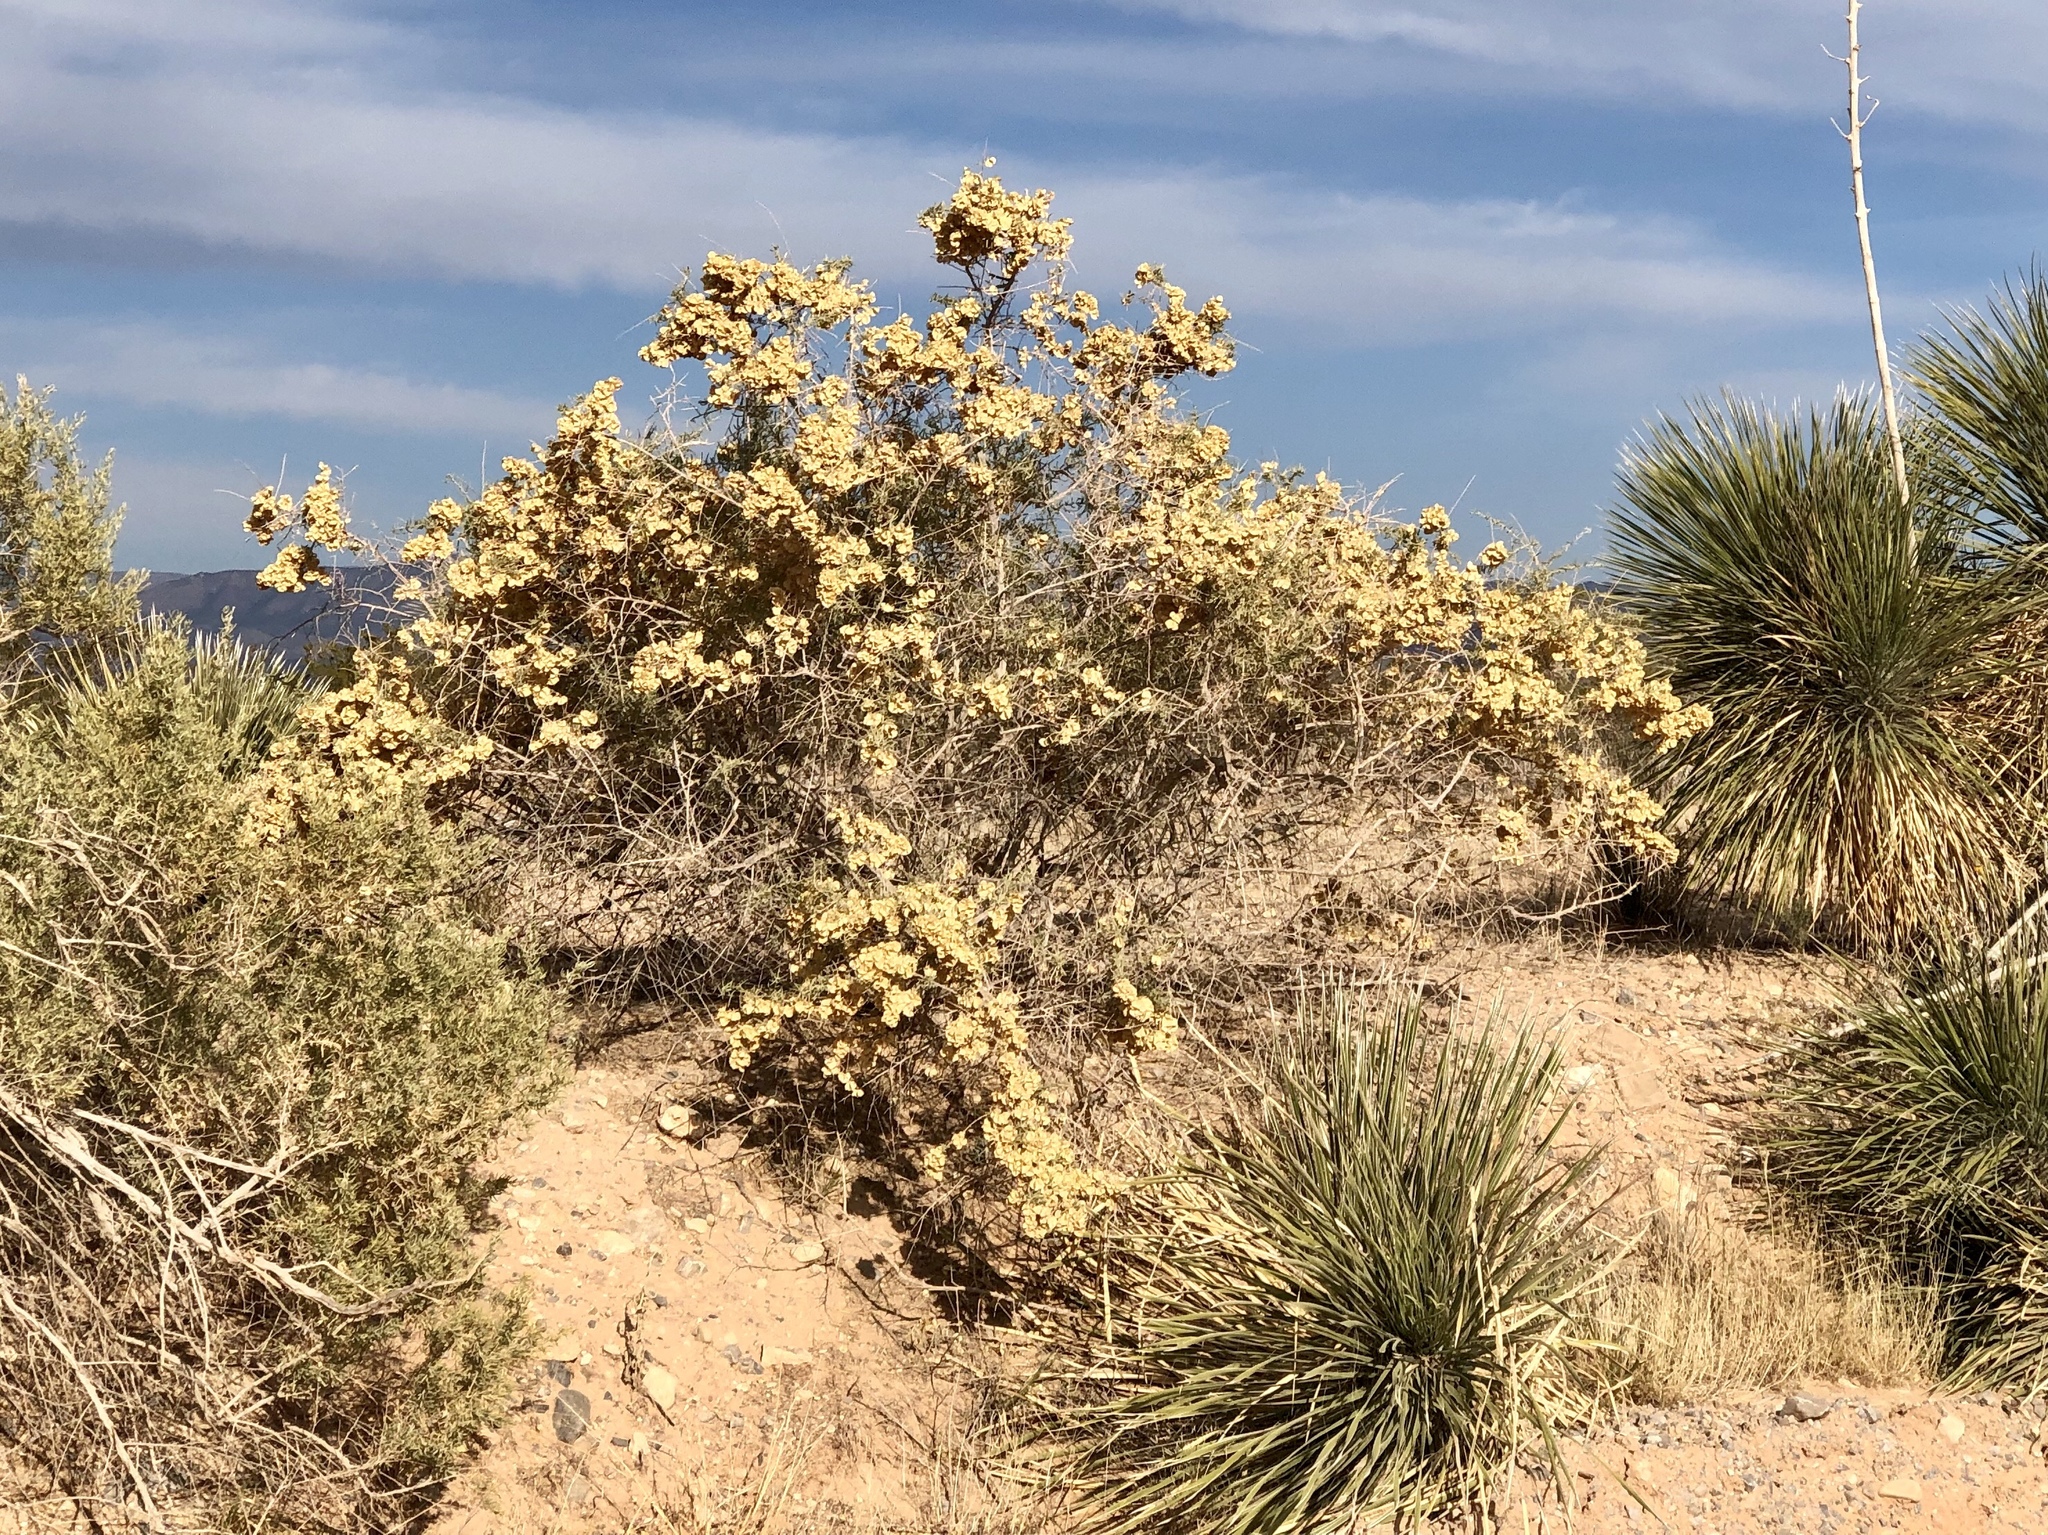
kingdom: Plantae
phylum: Tracheophyta
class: Magnoliopsida
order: Caryophyllales
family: Amaranthaceae
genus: Atriplex
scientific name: Atriplex canescens
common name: Four-wing saltbush
